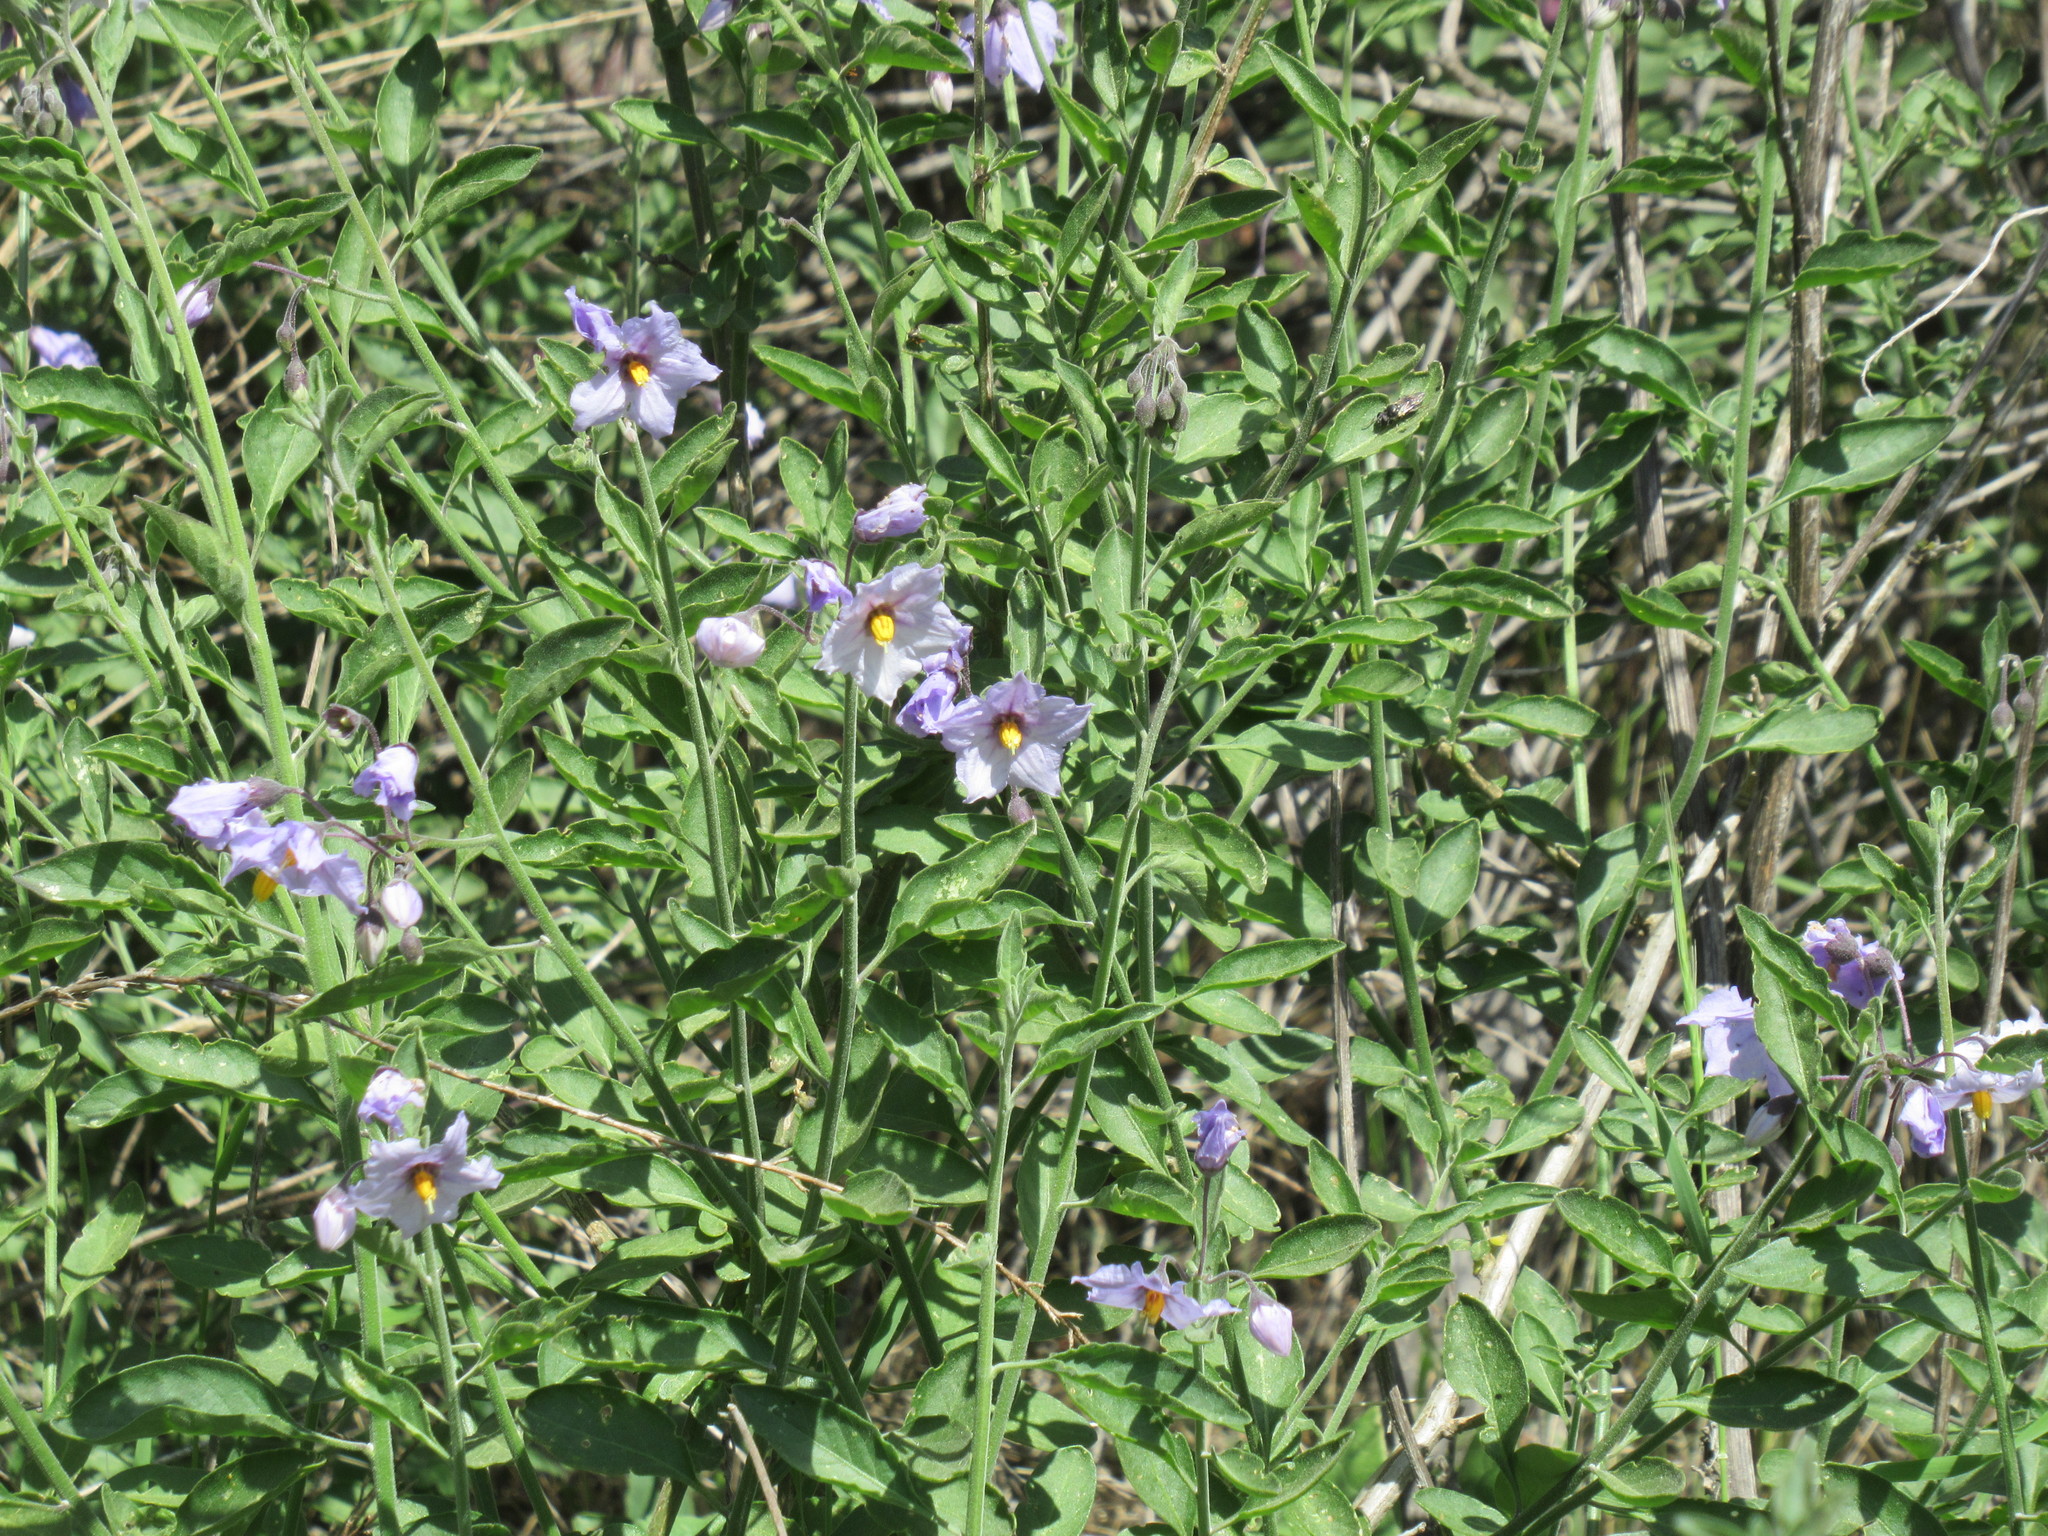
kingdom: Plantae
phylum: Tracheophyta
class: Magnoliopsida
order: Solanales
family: Solanaceae
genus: Solanum
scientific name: Solanum umbelliferum
